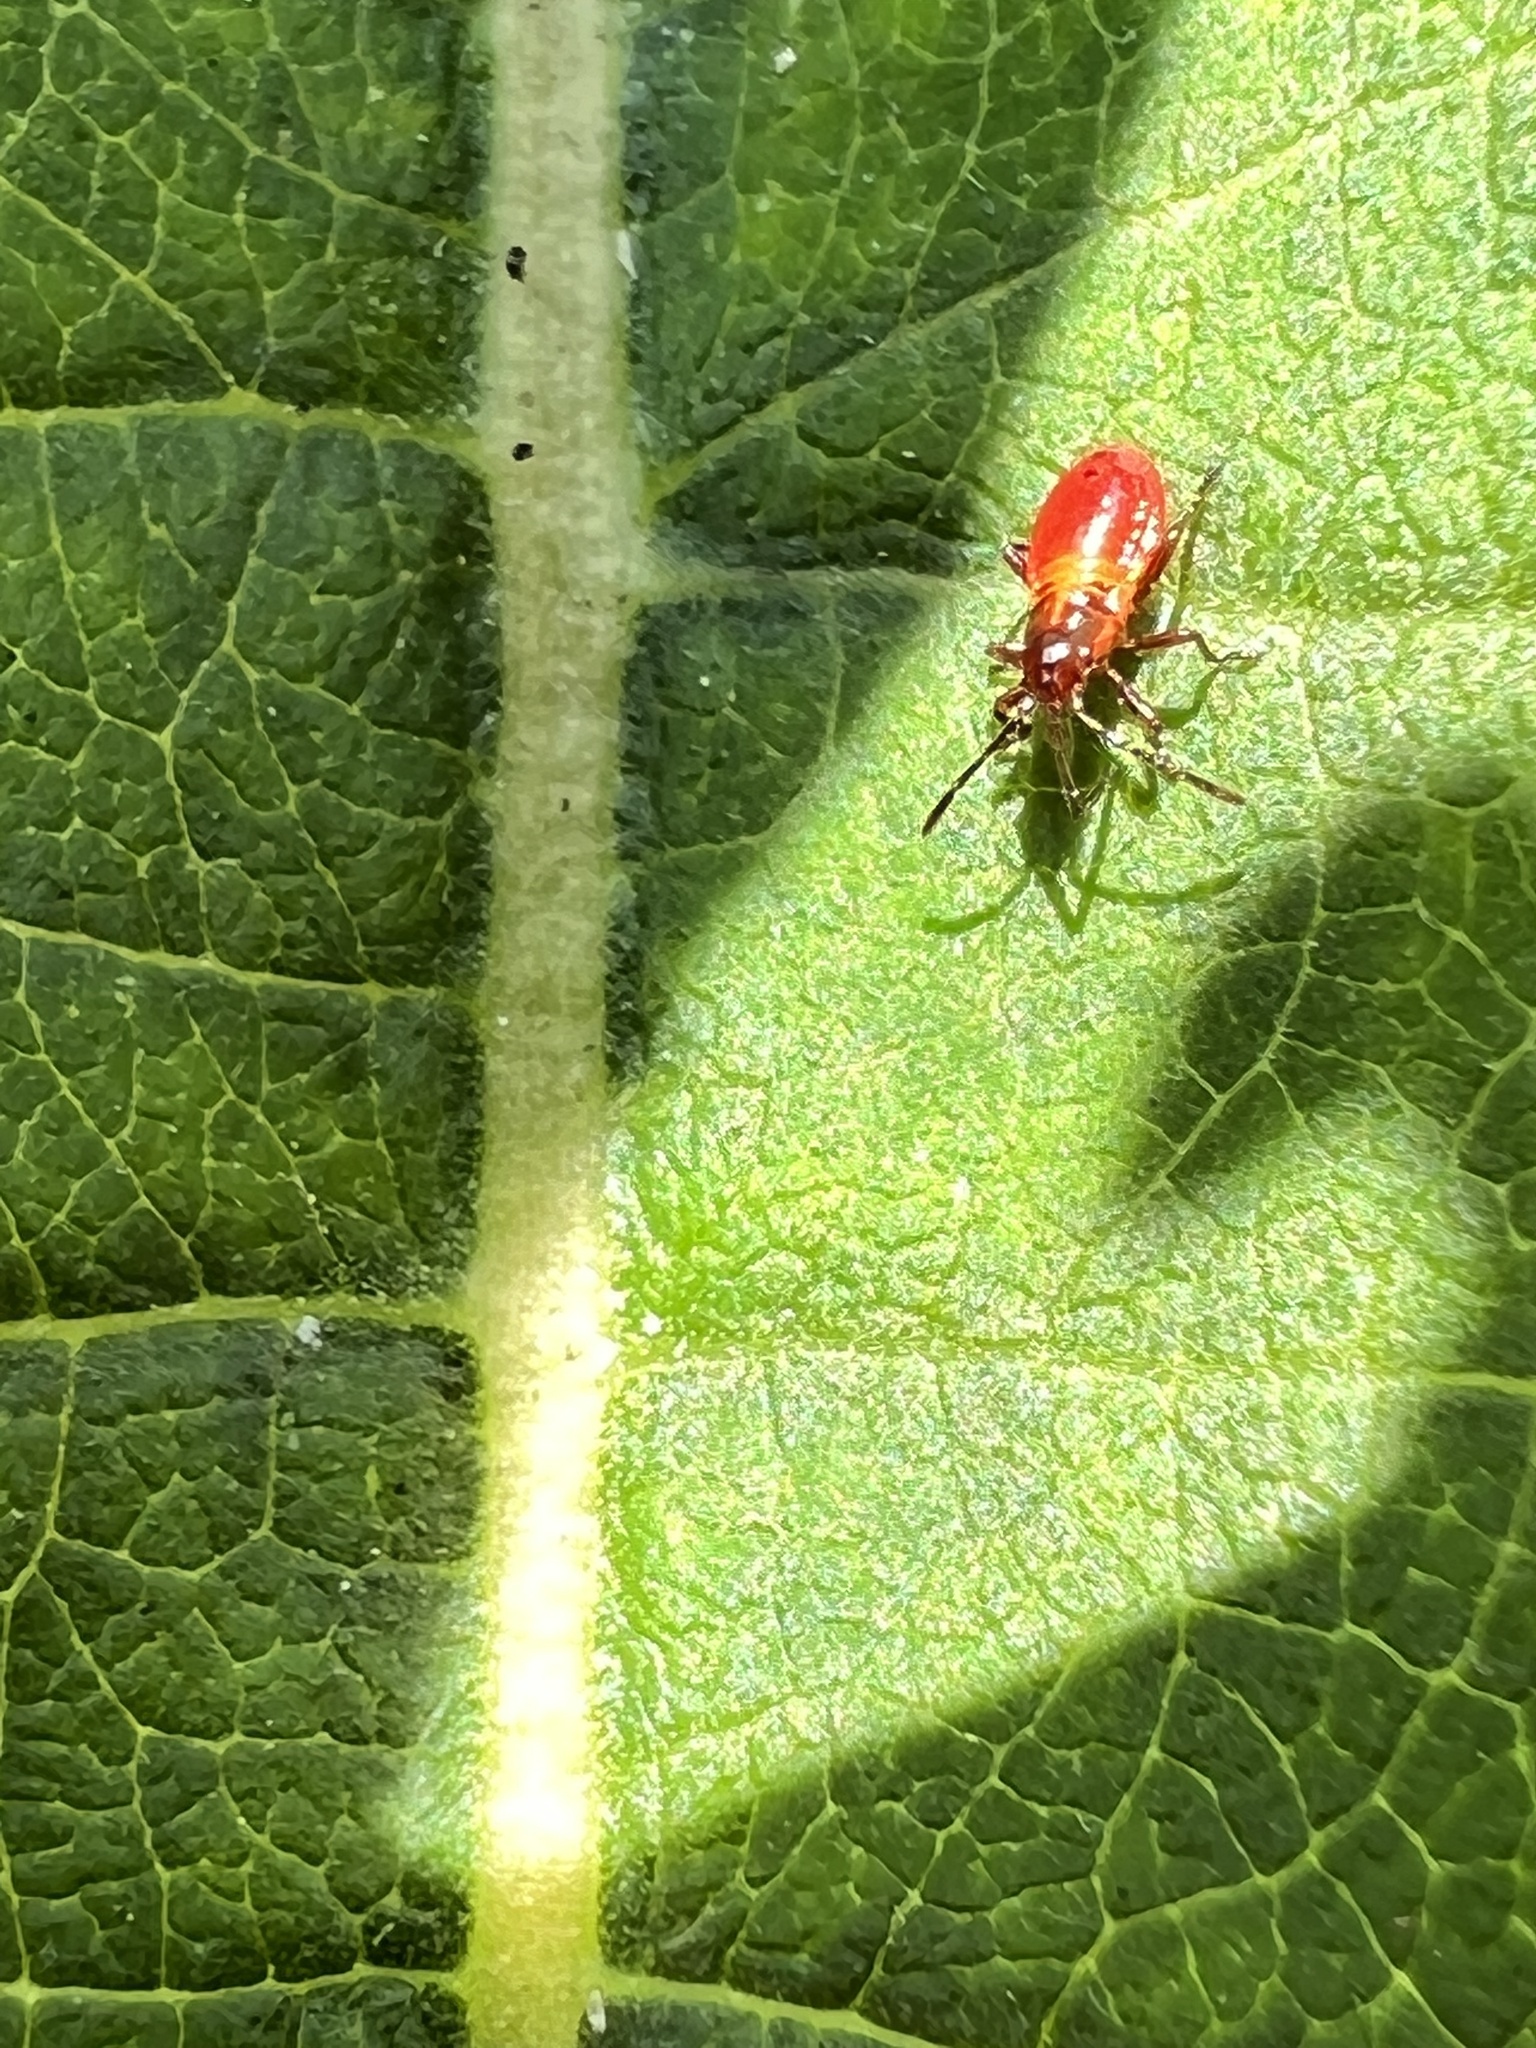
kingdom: Animalia
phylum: Arthropoda
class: Insecta
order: Hemiptera
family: Lygaeidae
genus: Oncopeltus
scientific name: Oncopeltus fasciatus
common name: Large milkweed bug
